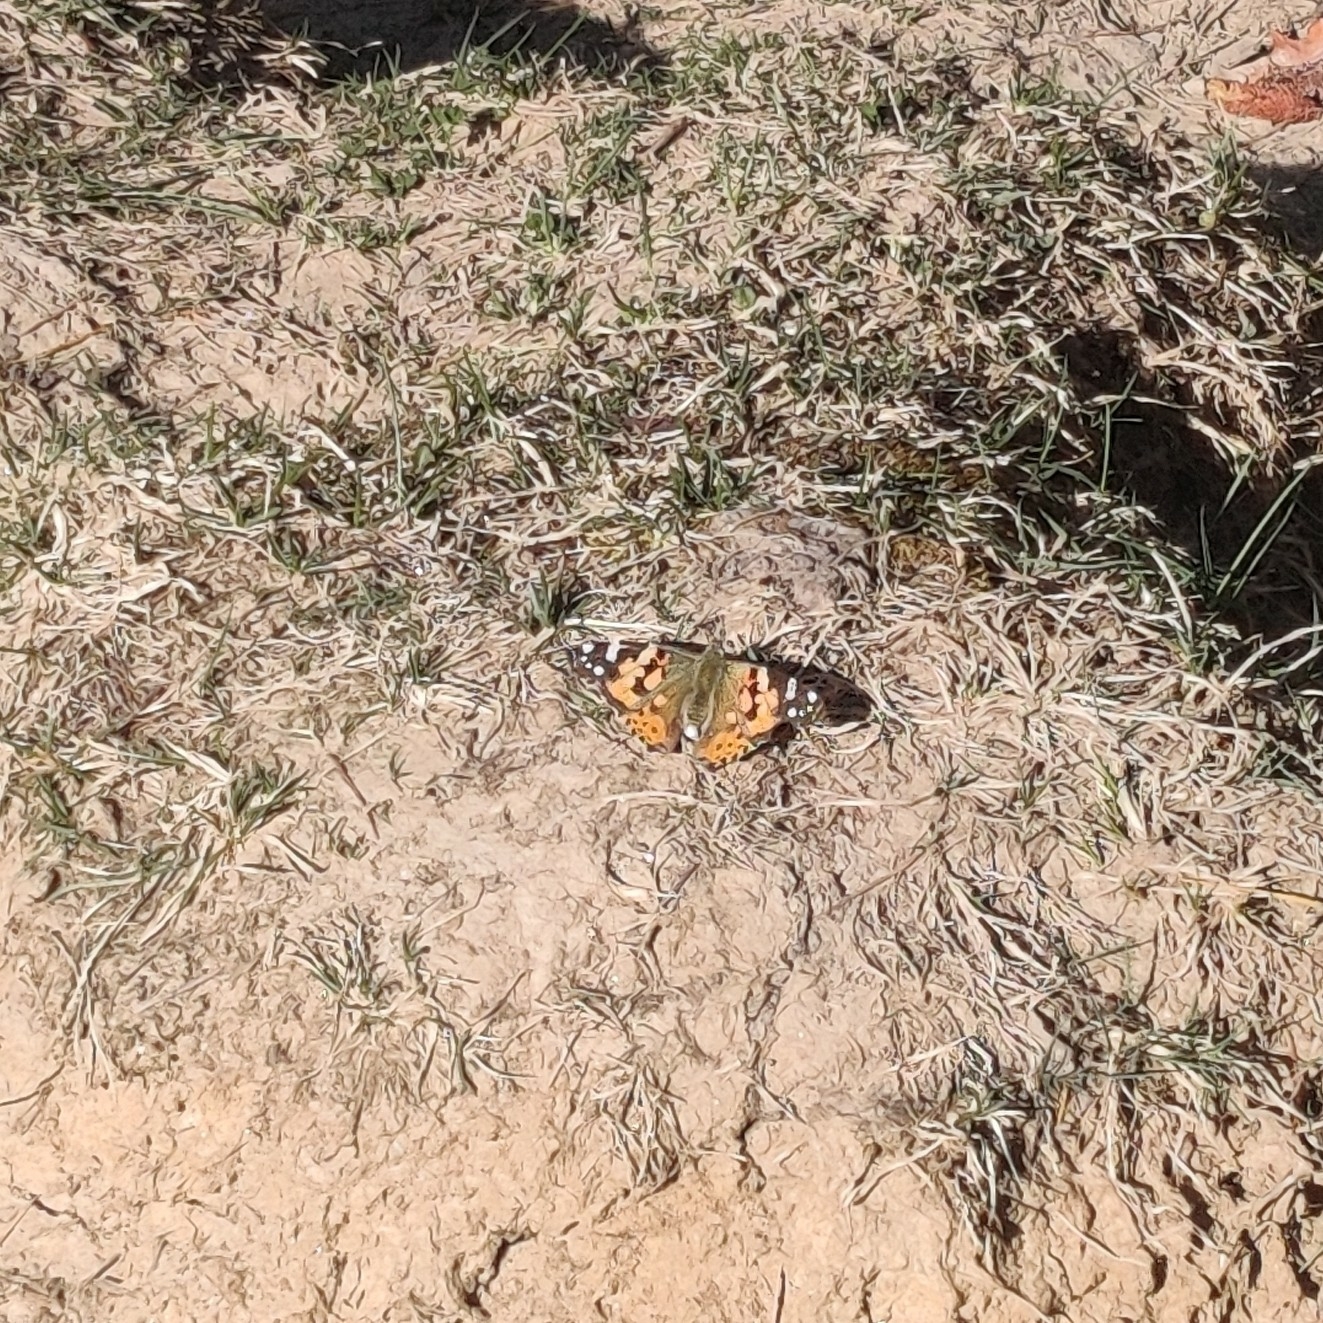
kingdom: Animalia
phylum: Arthropoda
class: Insecta
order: Lepidoptera
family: Nymphalidae
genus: Vanessa
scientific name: Vanessa cardui
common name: Painted lady
